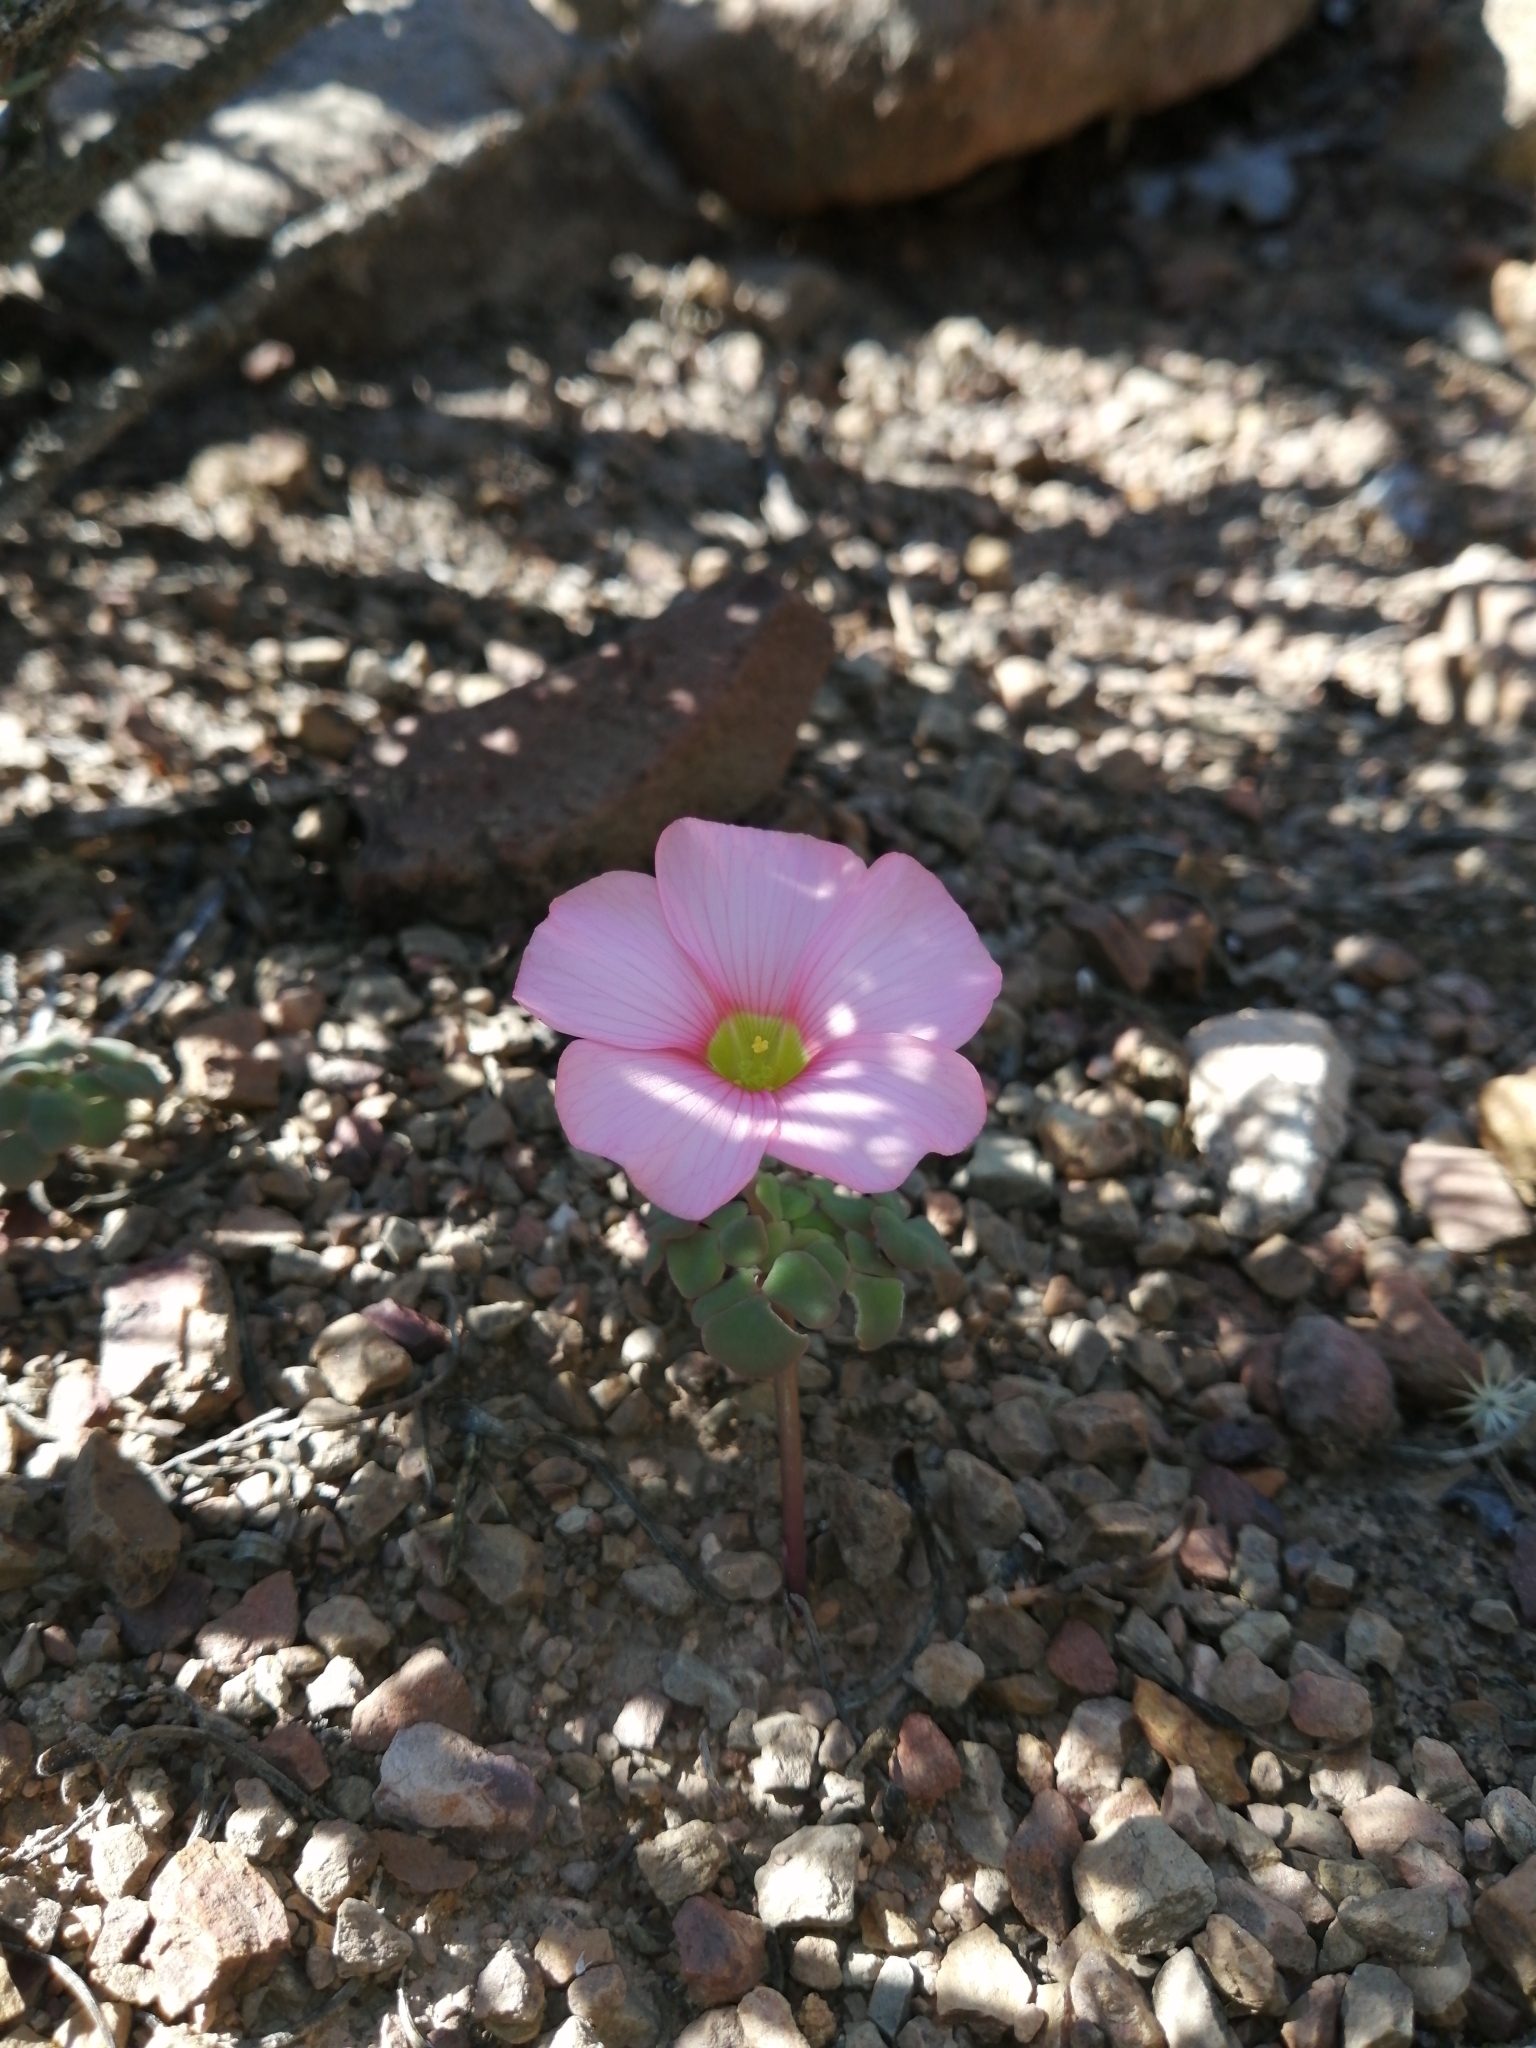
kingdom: Plantae
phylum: Tracheophyta
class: Magnoliopsida
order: Oxalidales
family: Oxalidaceae
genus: Oxalis
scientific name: Oxalis convexula
